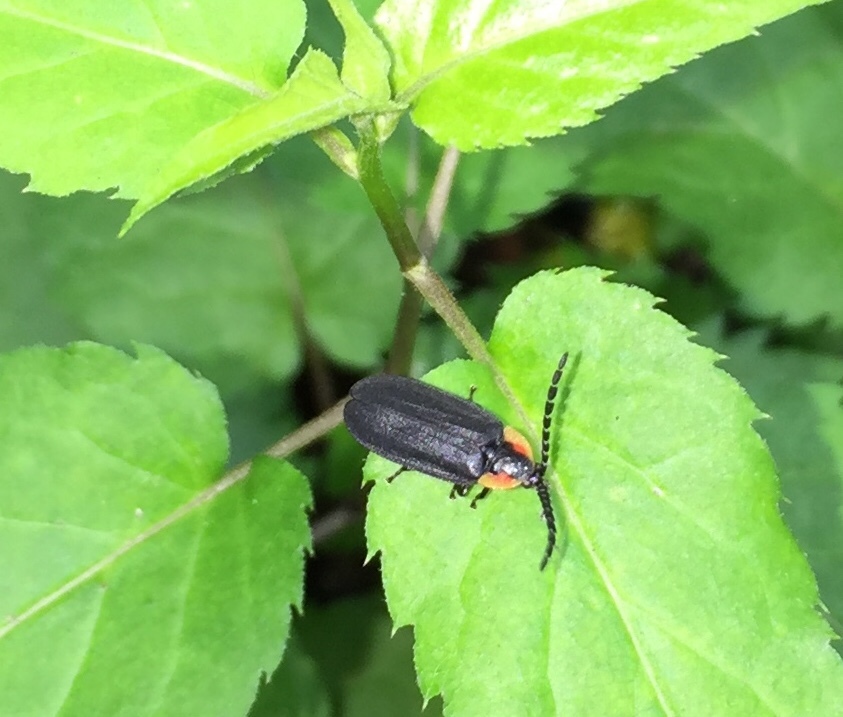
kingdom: Animalia
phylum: Arthropoda
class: Insecta
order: Coleoptera
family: Lampyridae
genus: Lucidota
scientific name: Lucidota atra
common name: Black firefly
